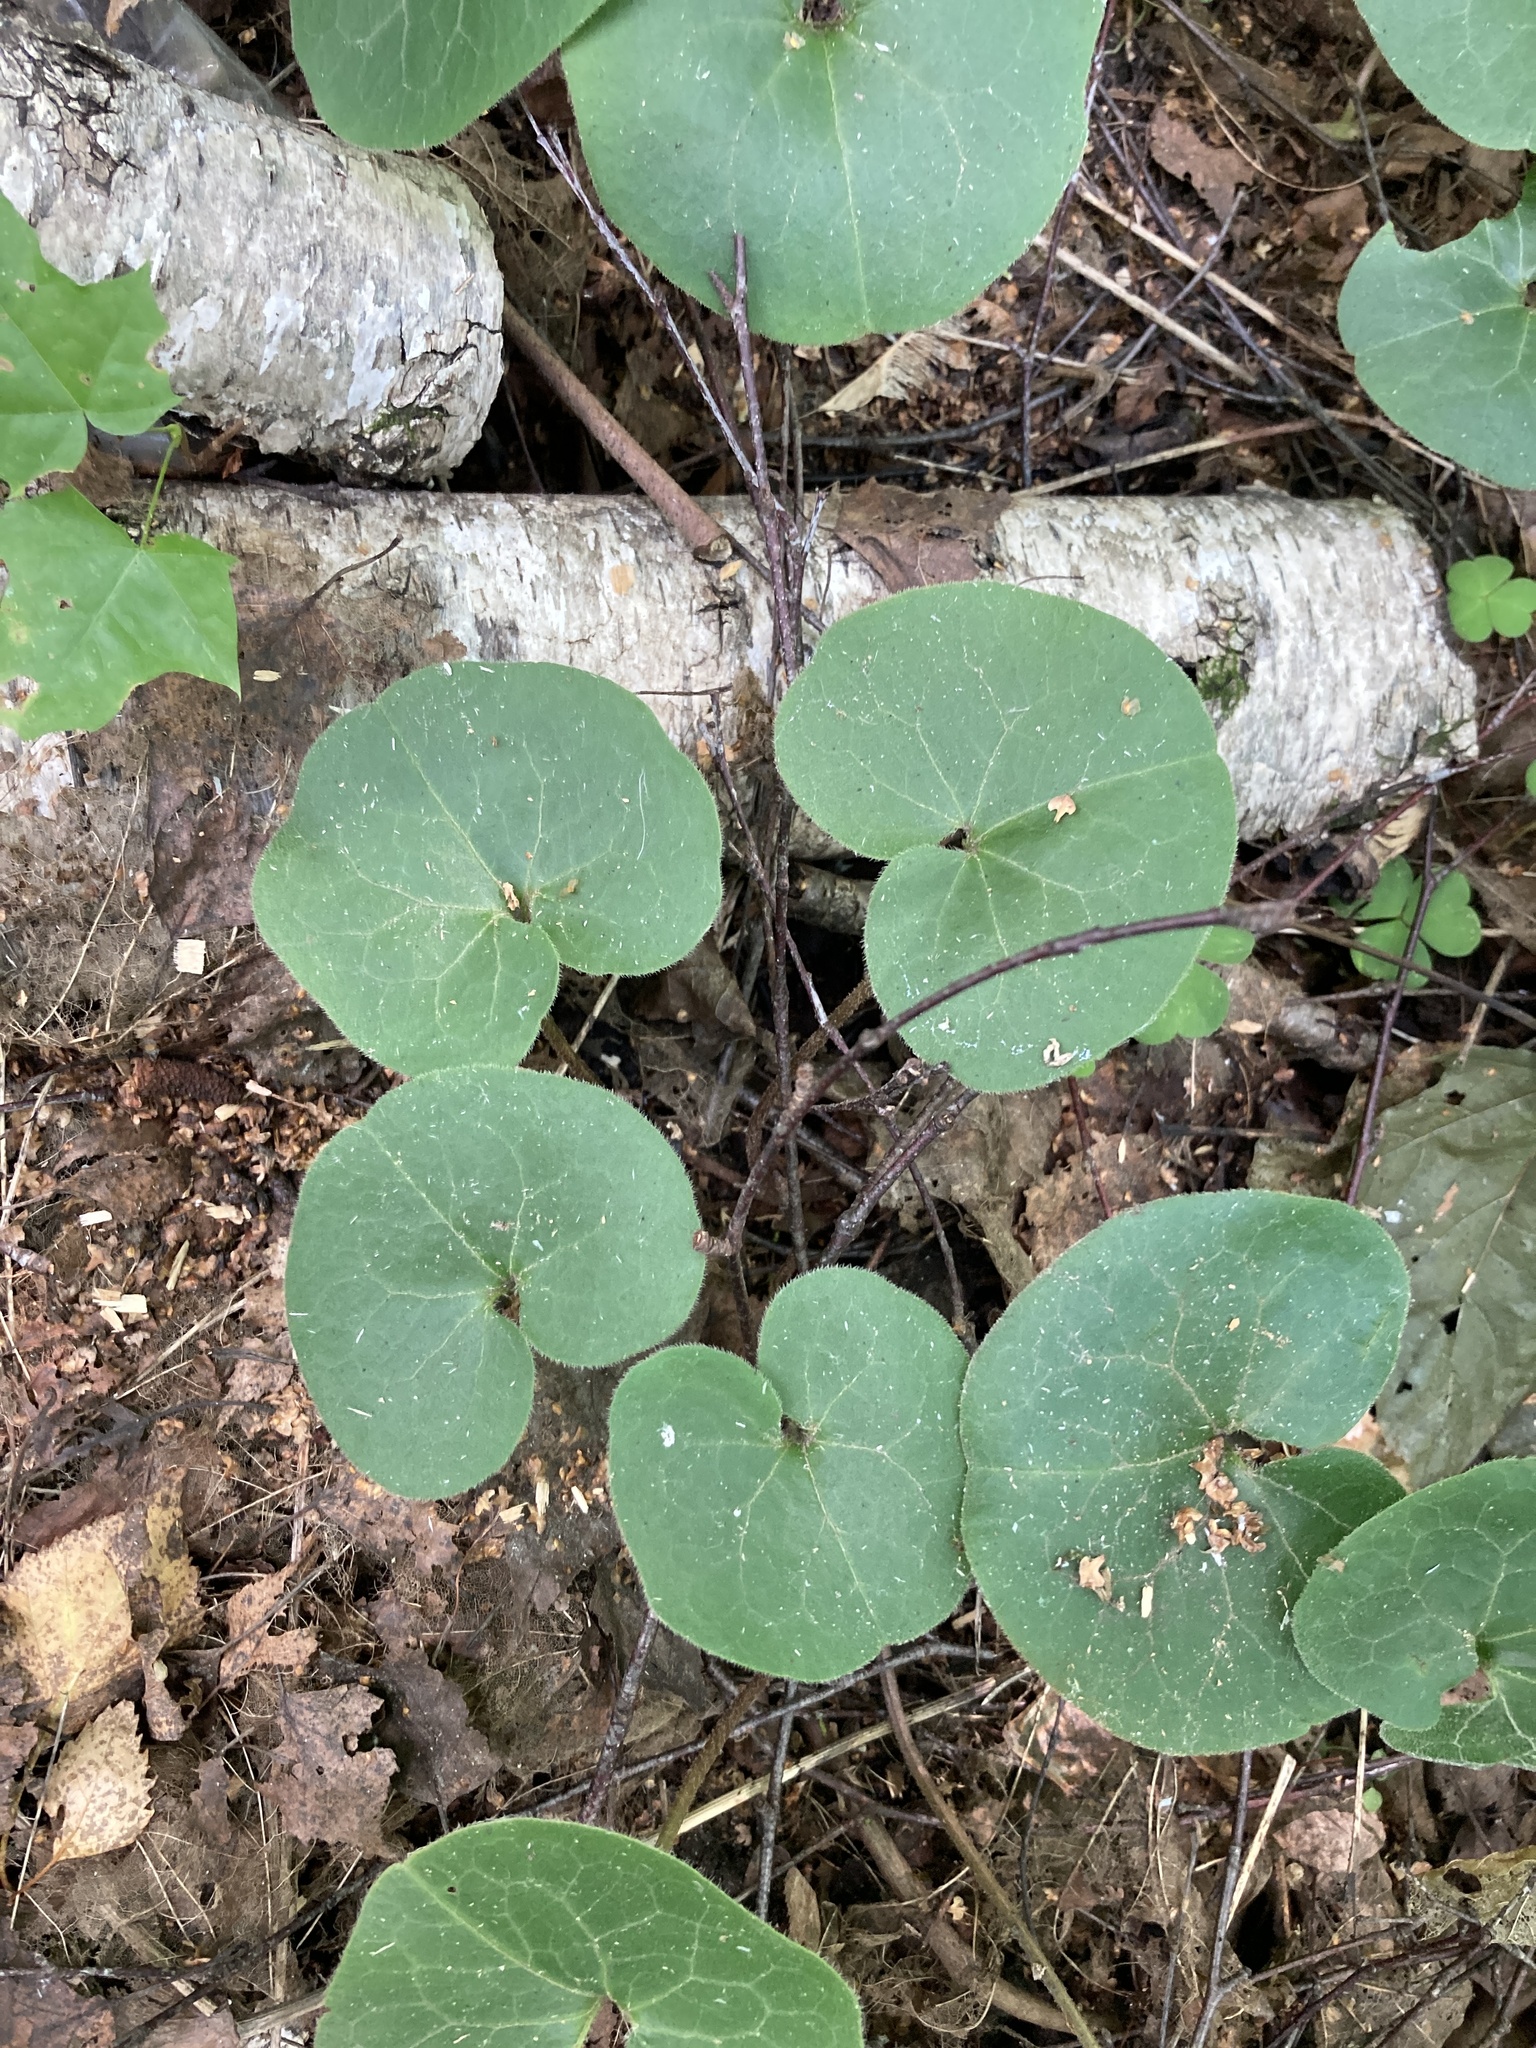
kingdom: Plantae
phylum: Tracheophyta
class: Magnoliopsida
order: Piperales
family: Aristolochiaceae
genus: Asarum
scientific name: Asarum europaeum
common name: Asarabacca
